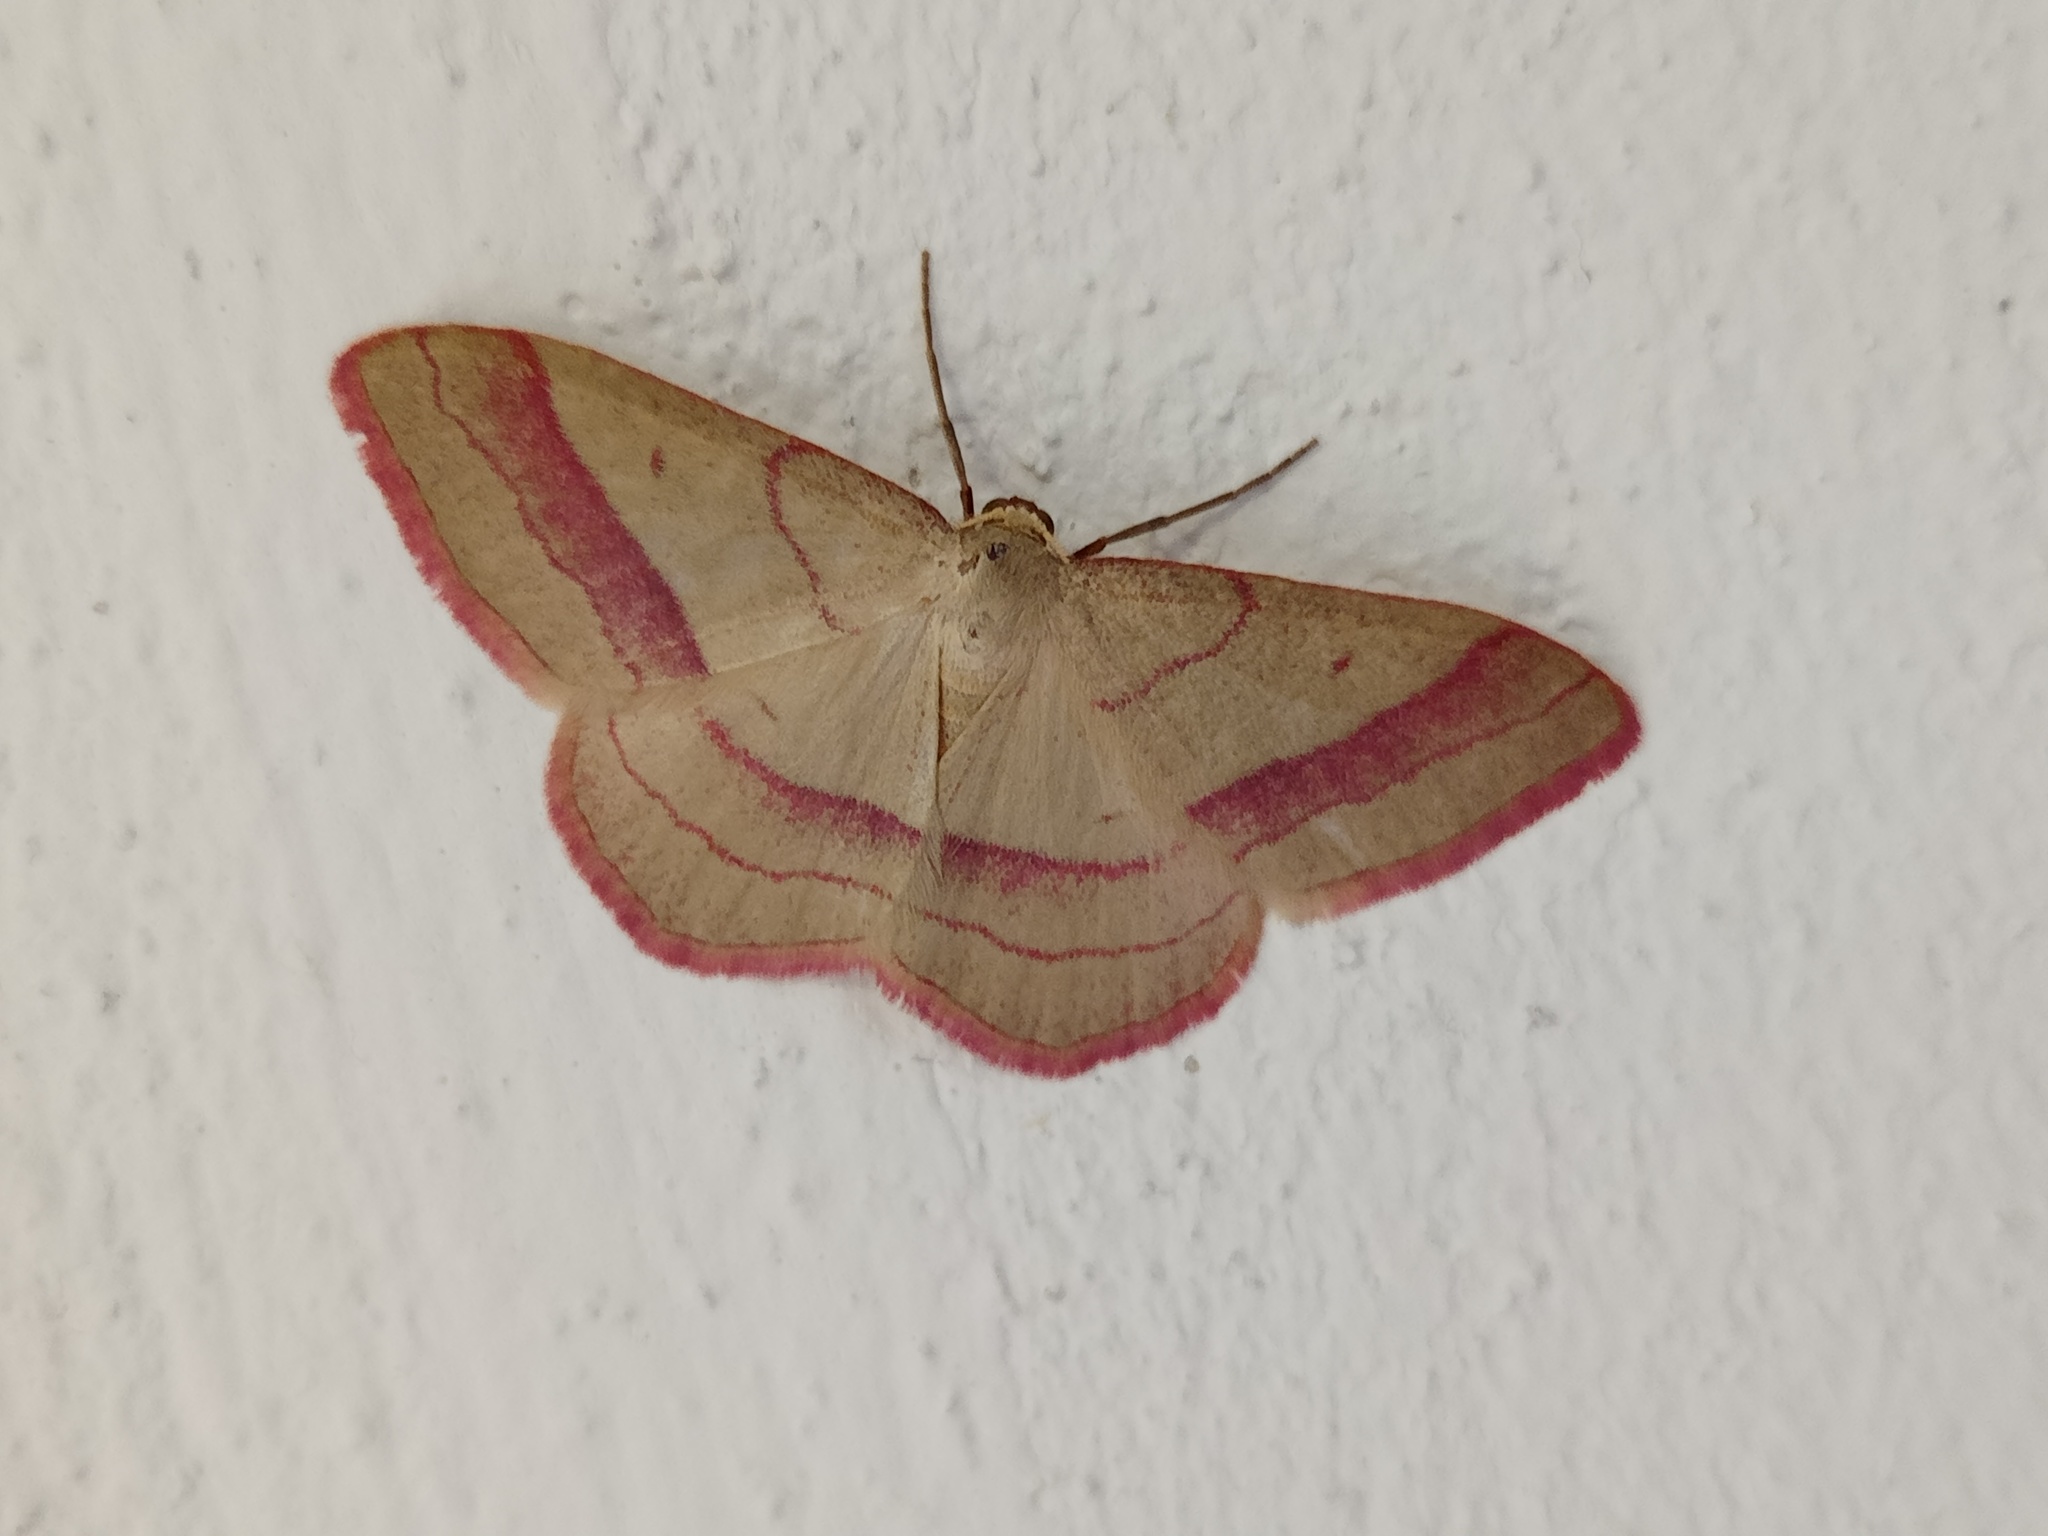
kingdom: Animalia
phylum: Arthropoda
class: Insecta
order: Lepidoptera
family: Geometridae
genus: Rhodostrophia
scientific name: Rhodostrophia vibicaria
